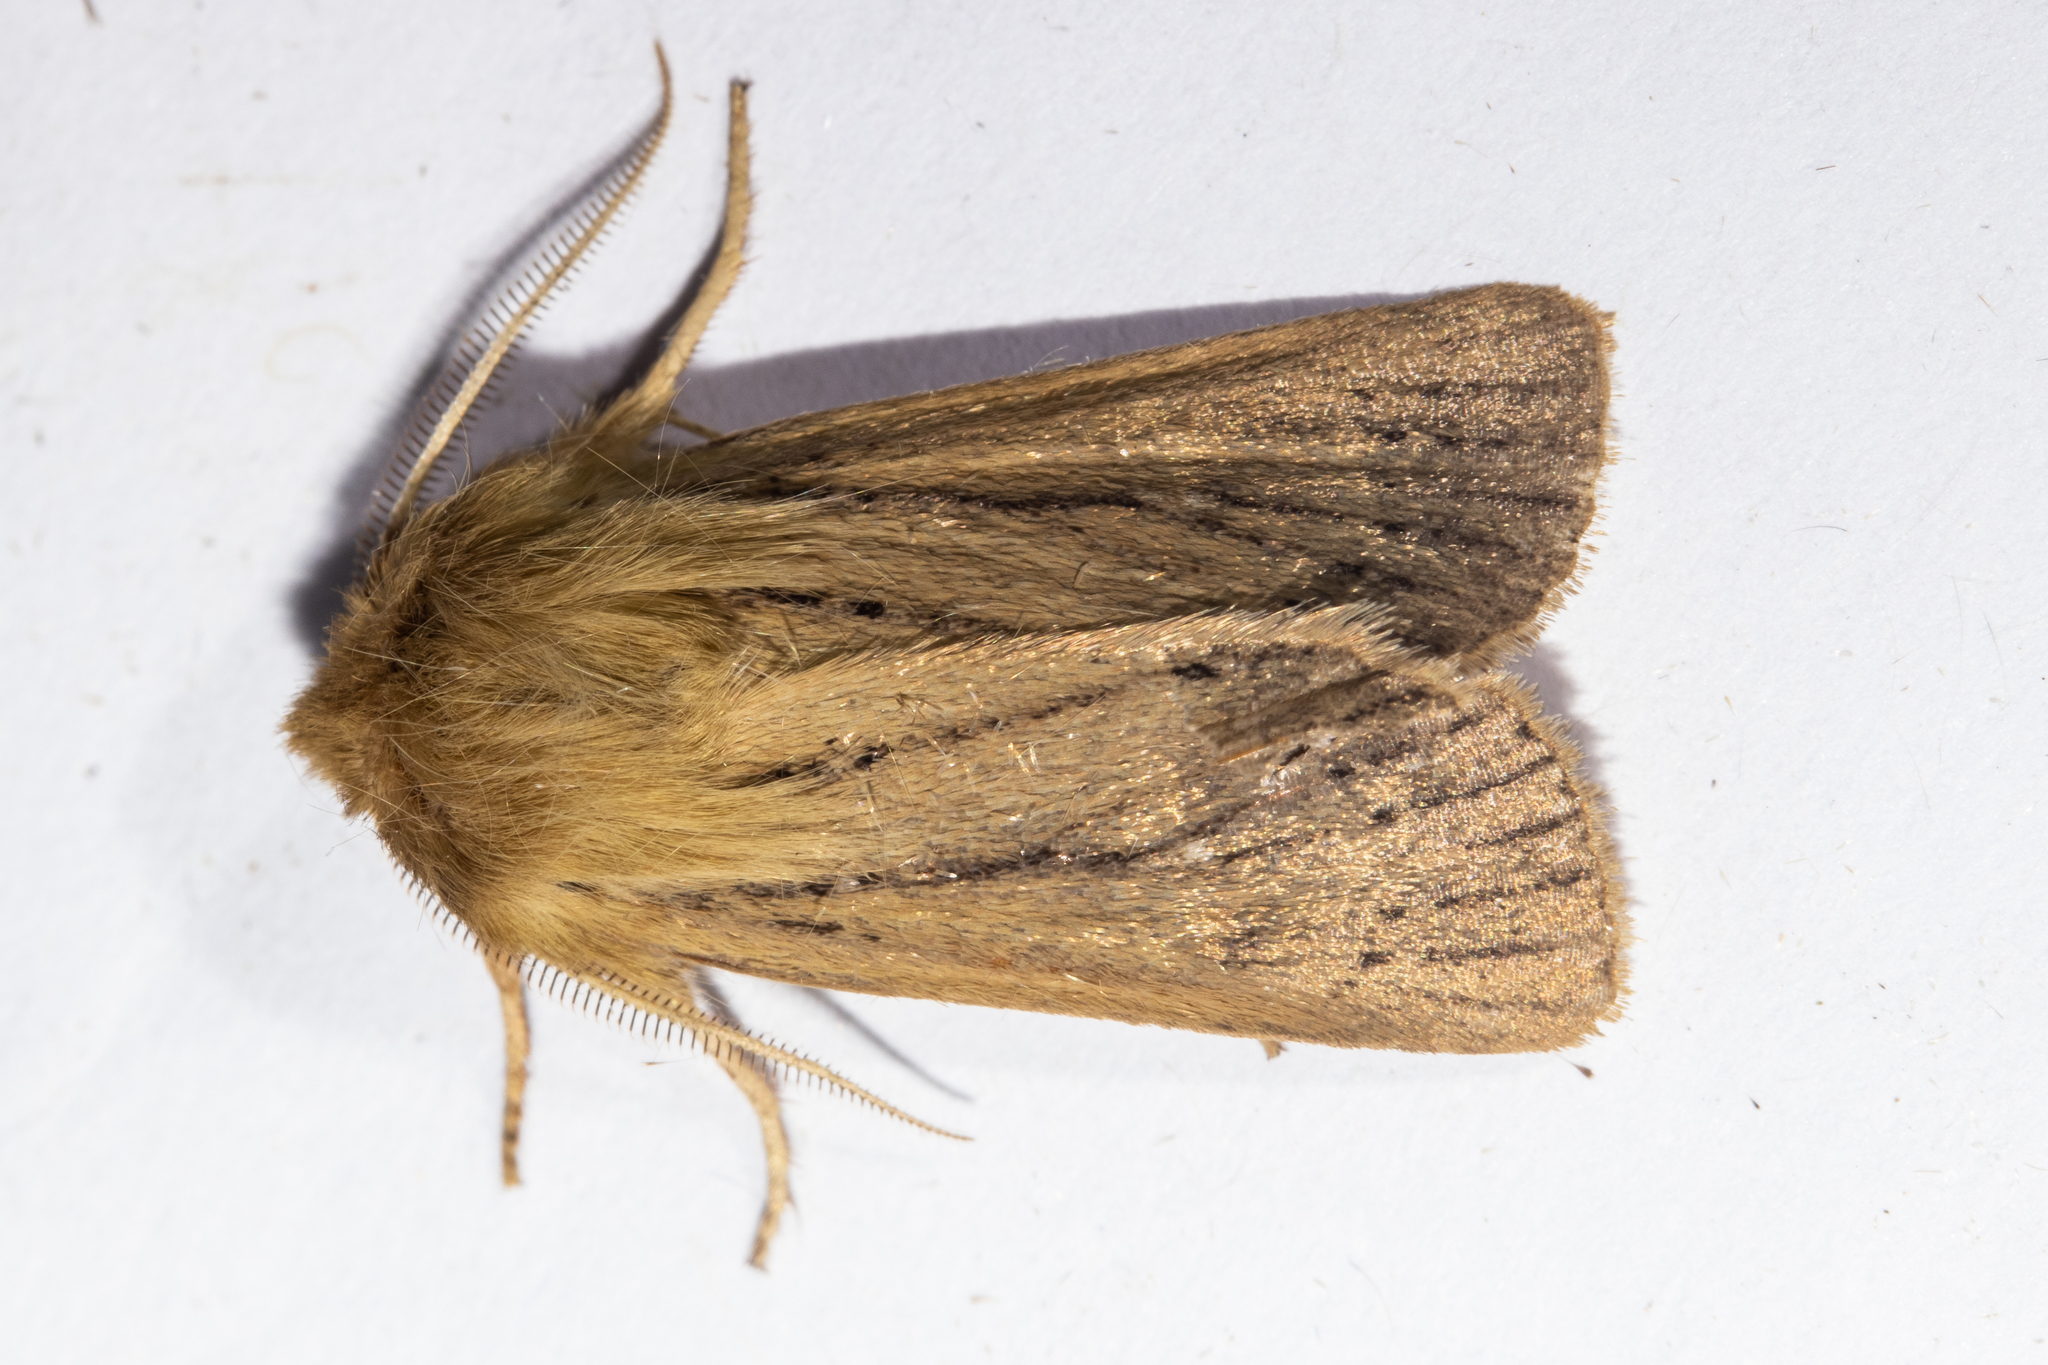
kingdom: Animalia
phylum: Arthropoda
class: Insecta
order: Lepidoptera
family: Noctuidae
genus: Ichneutica
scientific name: Ichneutica
